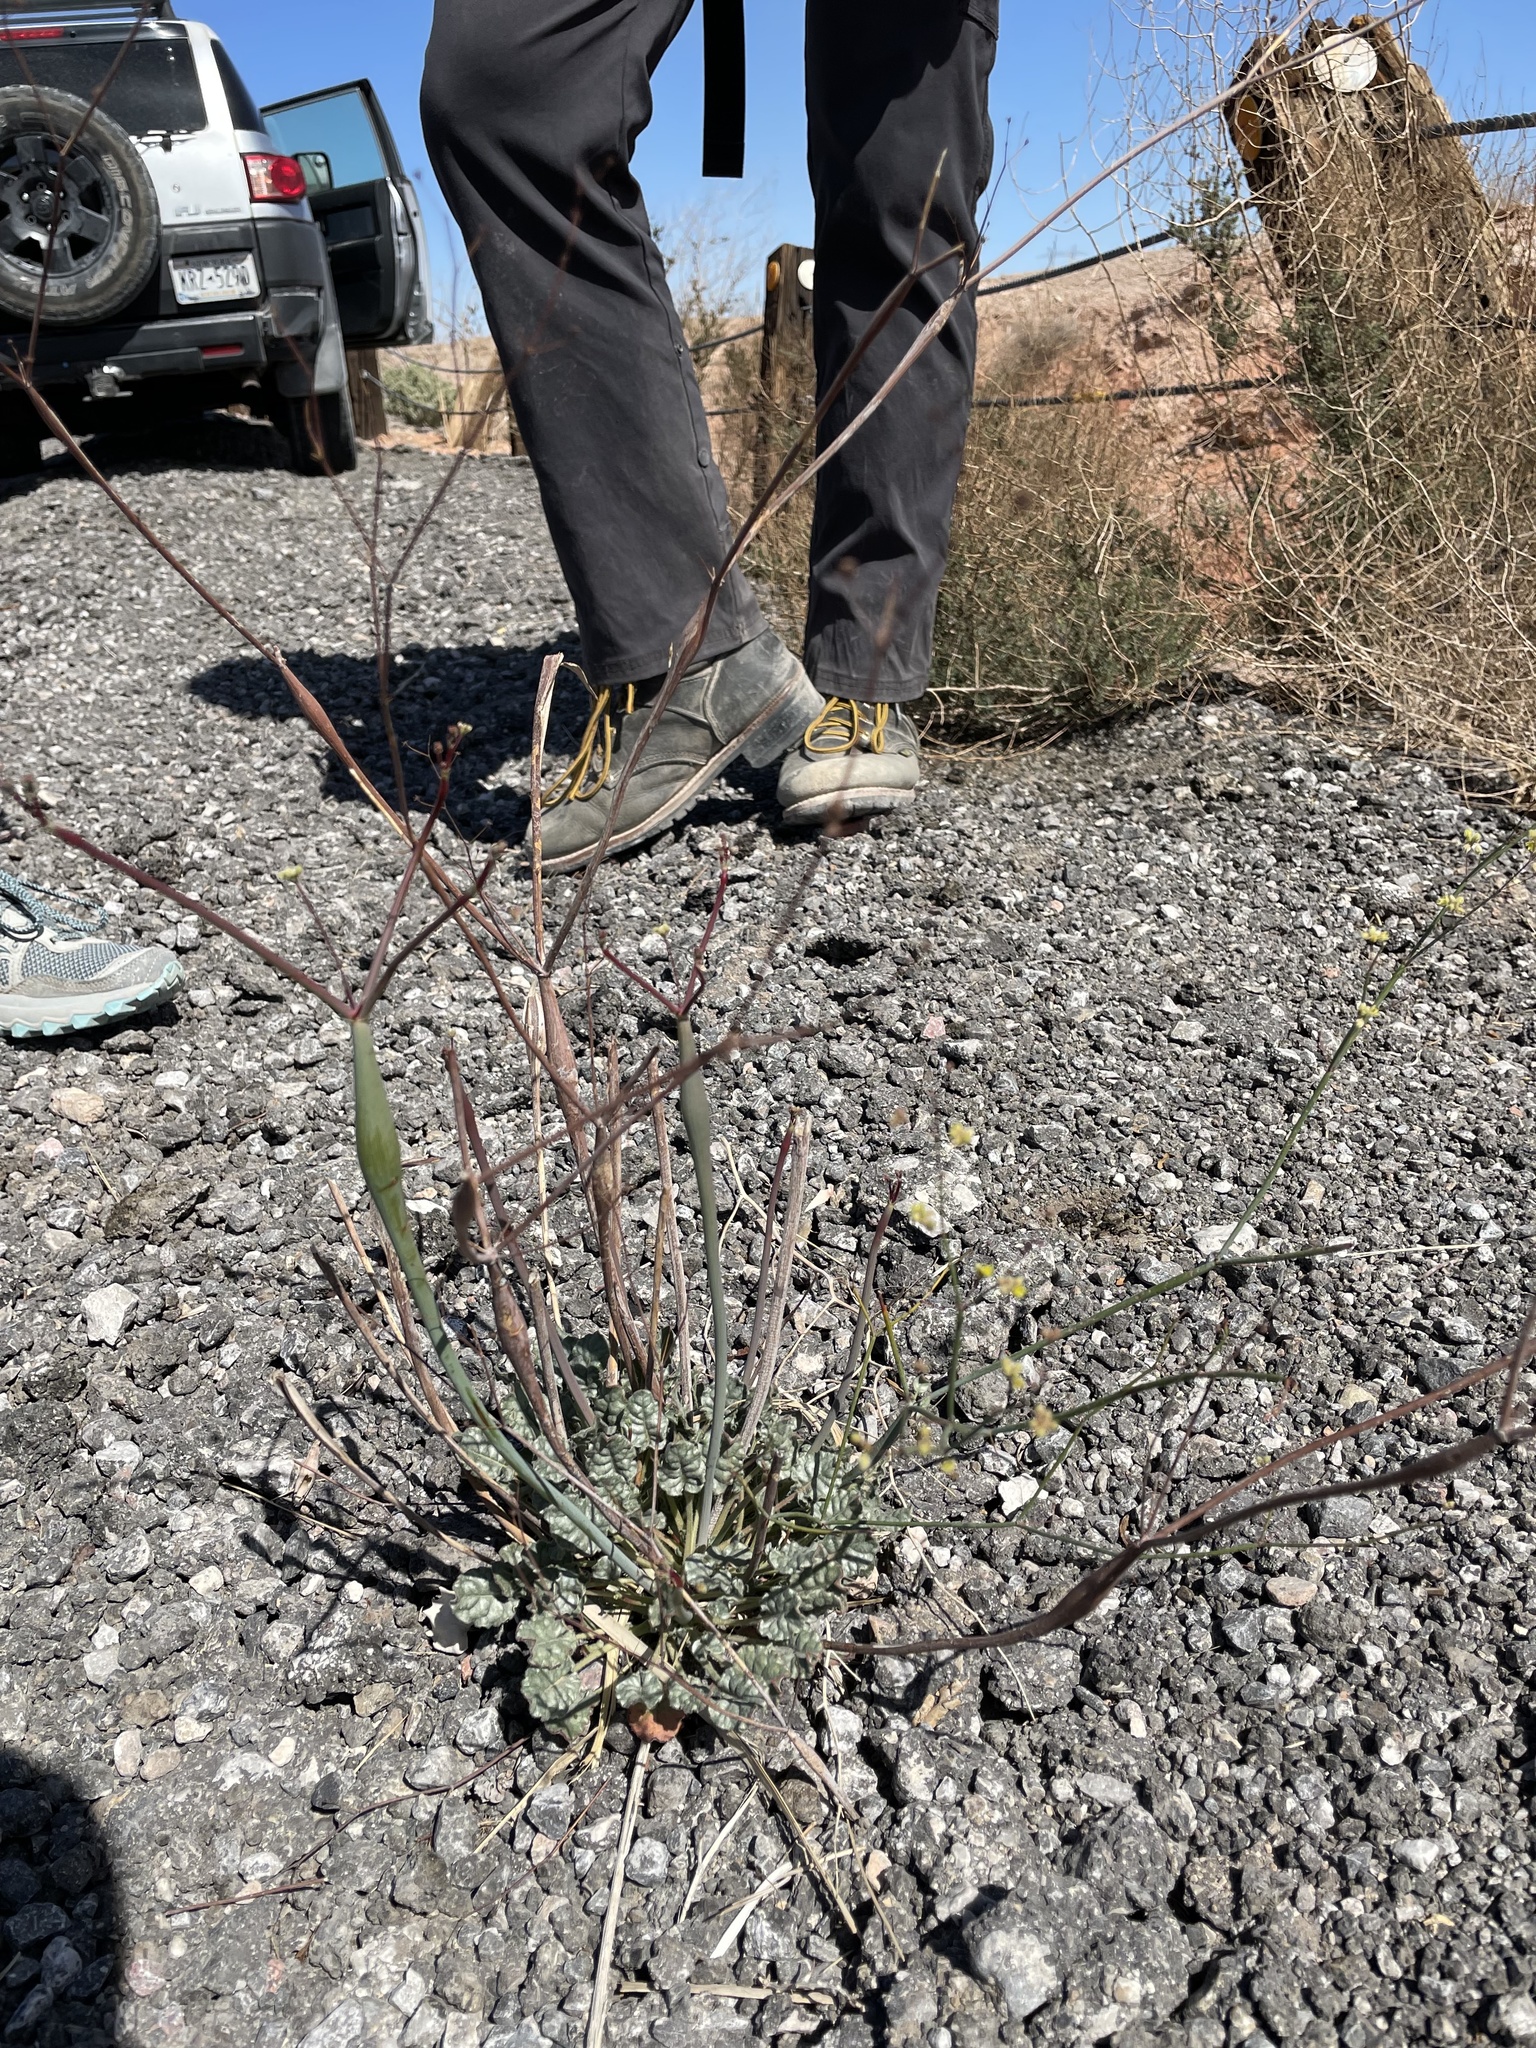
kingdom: Plantae
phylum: Tracheophyta
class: Magnoliopsida
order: Caryophyllales
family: Polygonaceae
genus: Eriogonum
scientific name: Eriogonum inflatum
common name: Desert trumpet
